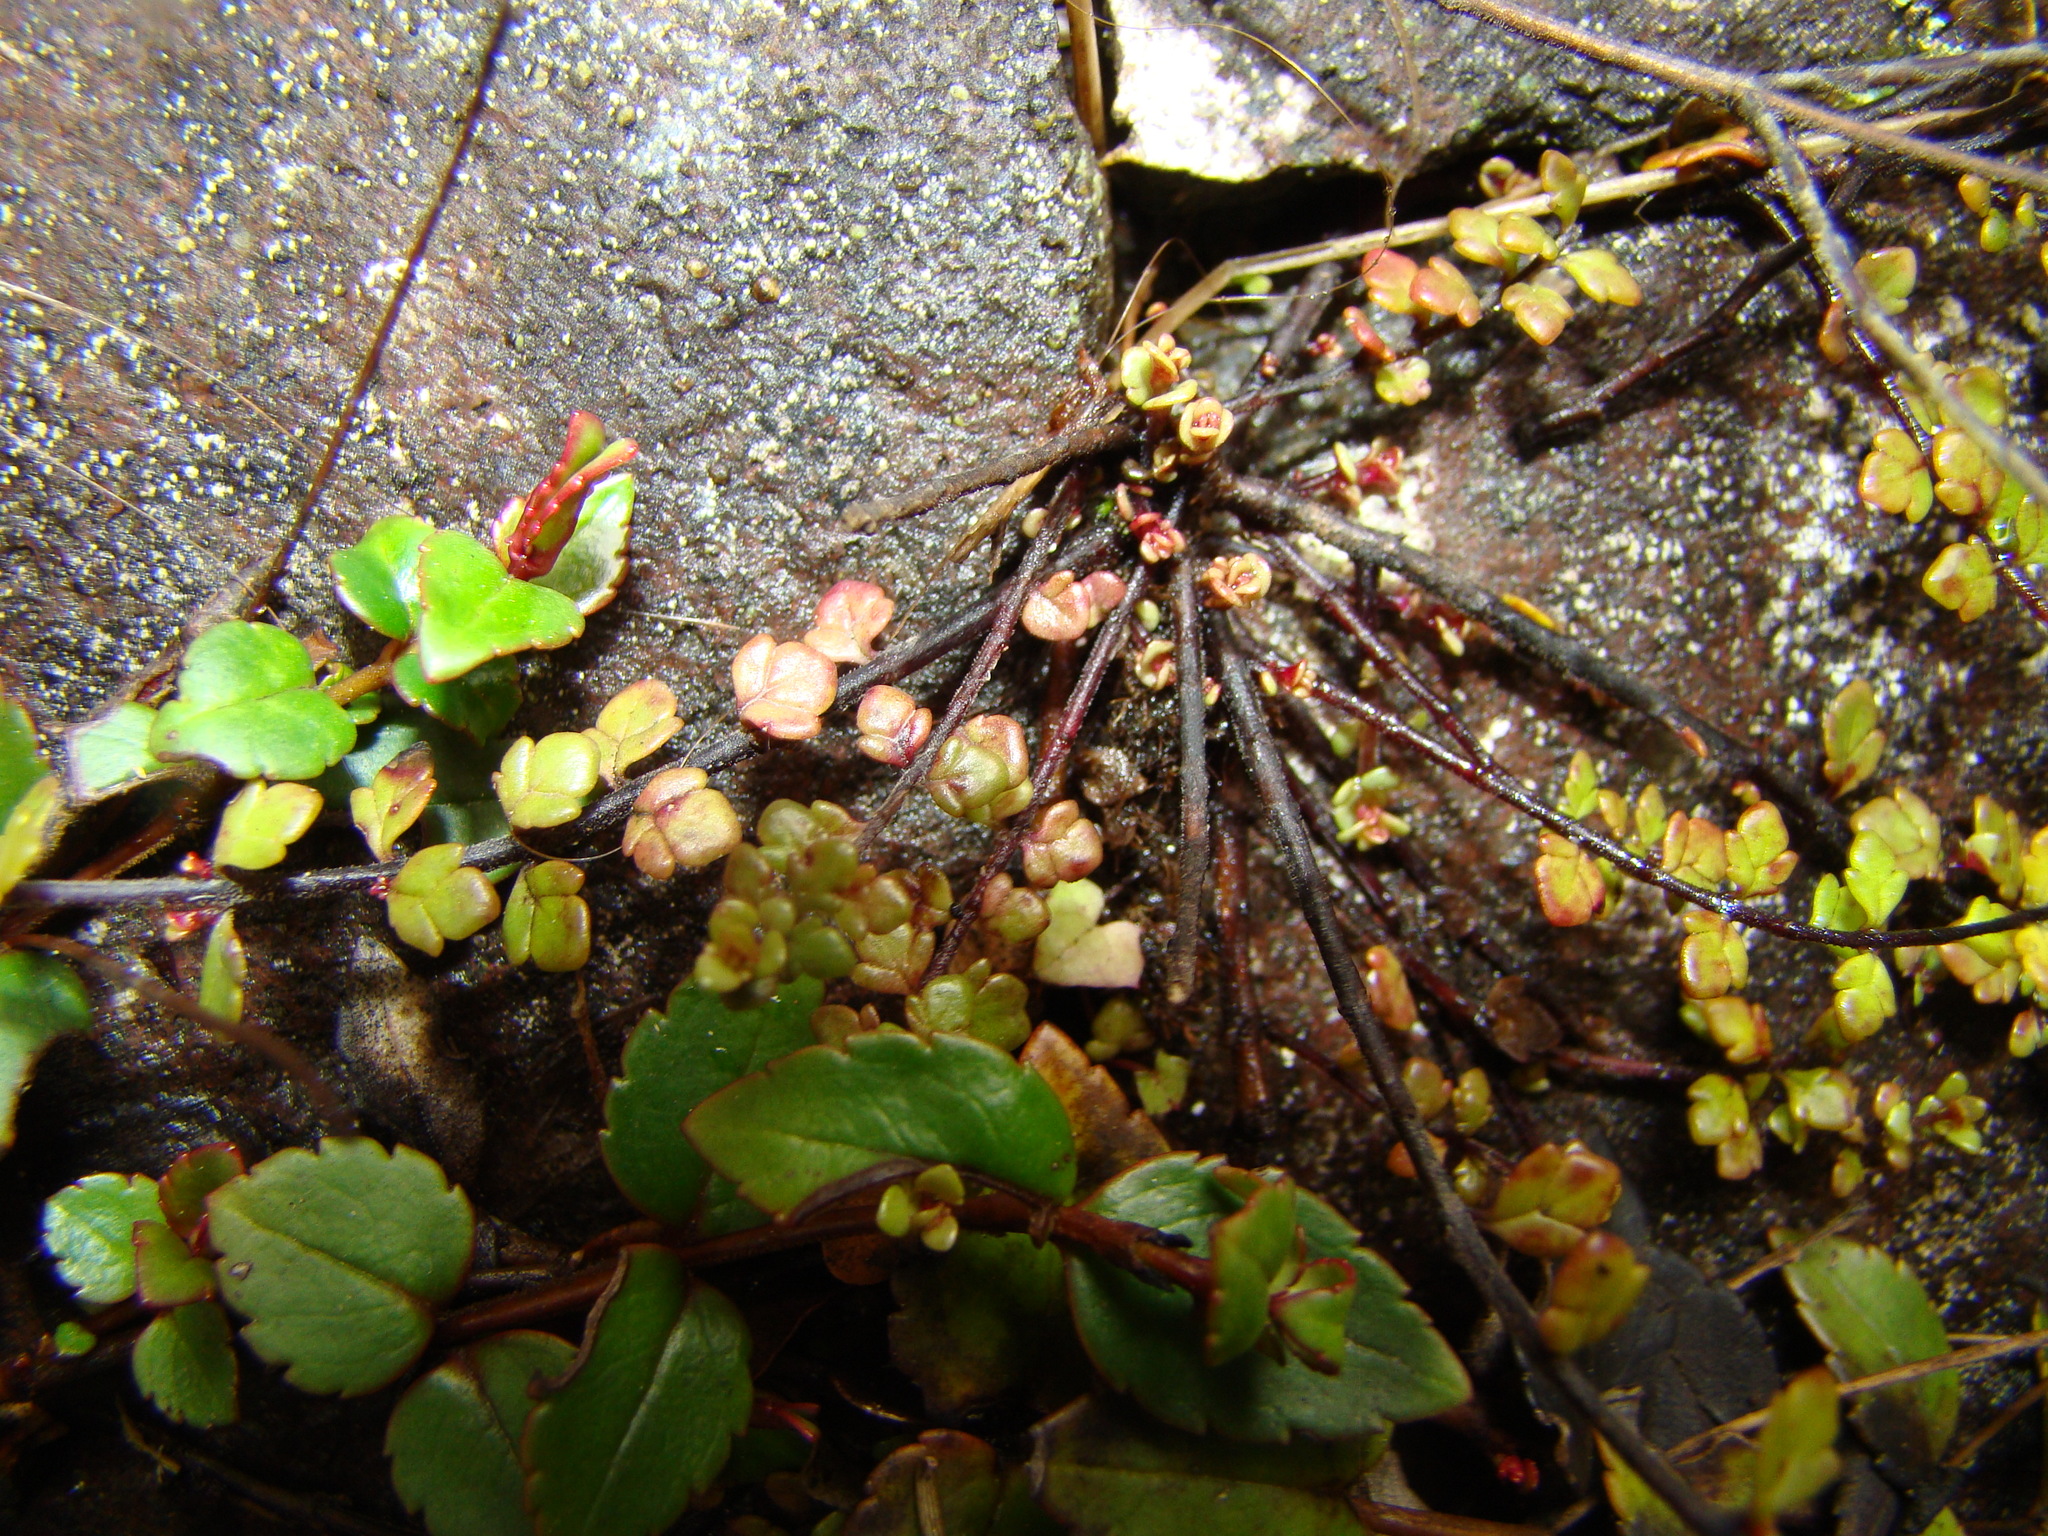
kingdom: Plantae
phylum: Tracheophyta
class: Magnoliopsida
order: Lamiales
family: Plantaginaceae
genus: Veronica
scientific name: Veronica hookeriana
